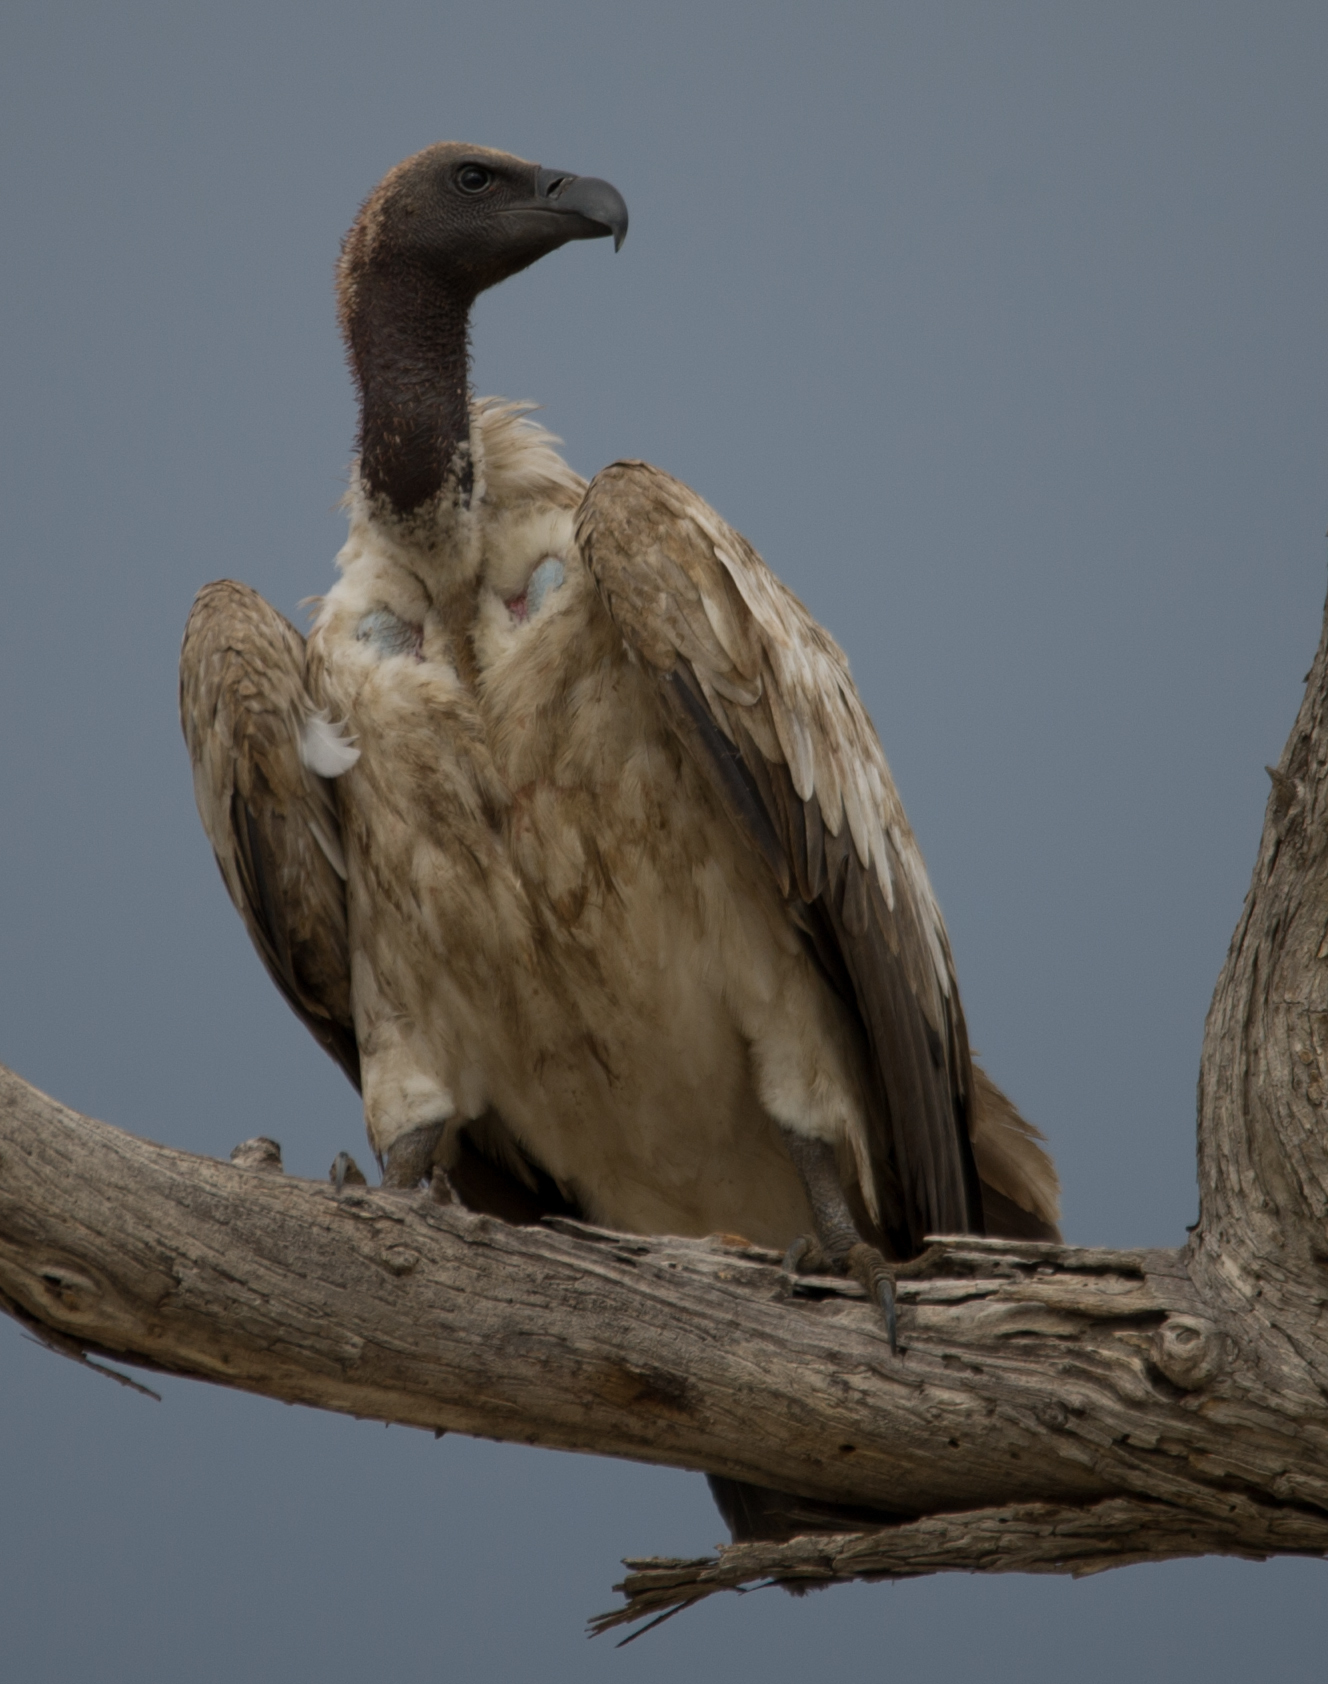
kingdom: Animalia
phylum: Chordata
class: Aves
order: Accipitriformes
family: Accipitridae
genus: Gyps
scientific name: Gyps africanus
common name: White-backed vulture
